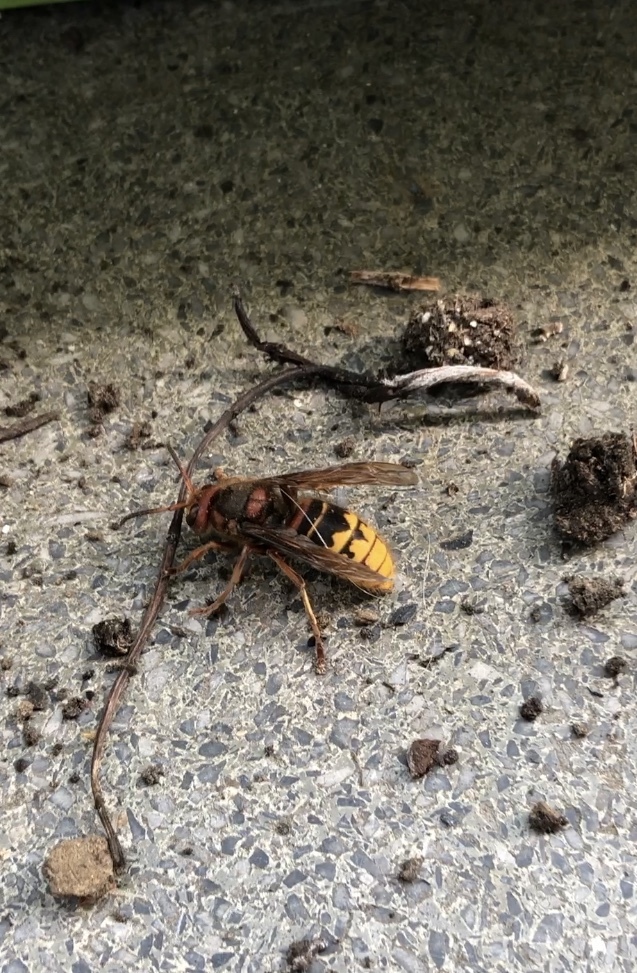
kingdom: Animalia
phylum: Arthropoda
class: Insecta
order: Hymenoptera
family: Vespidae
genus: Vespa
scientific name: Vespa crabro
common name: Hornet
